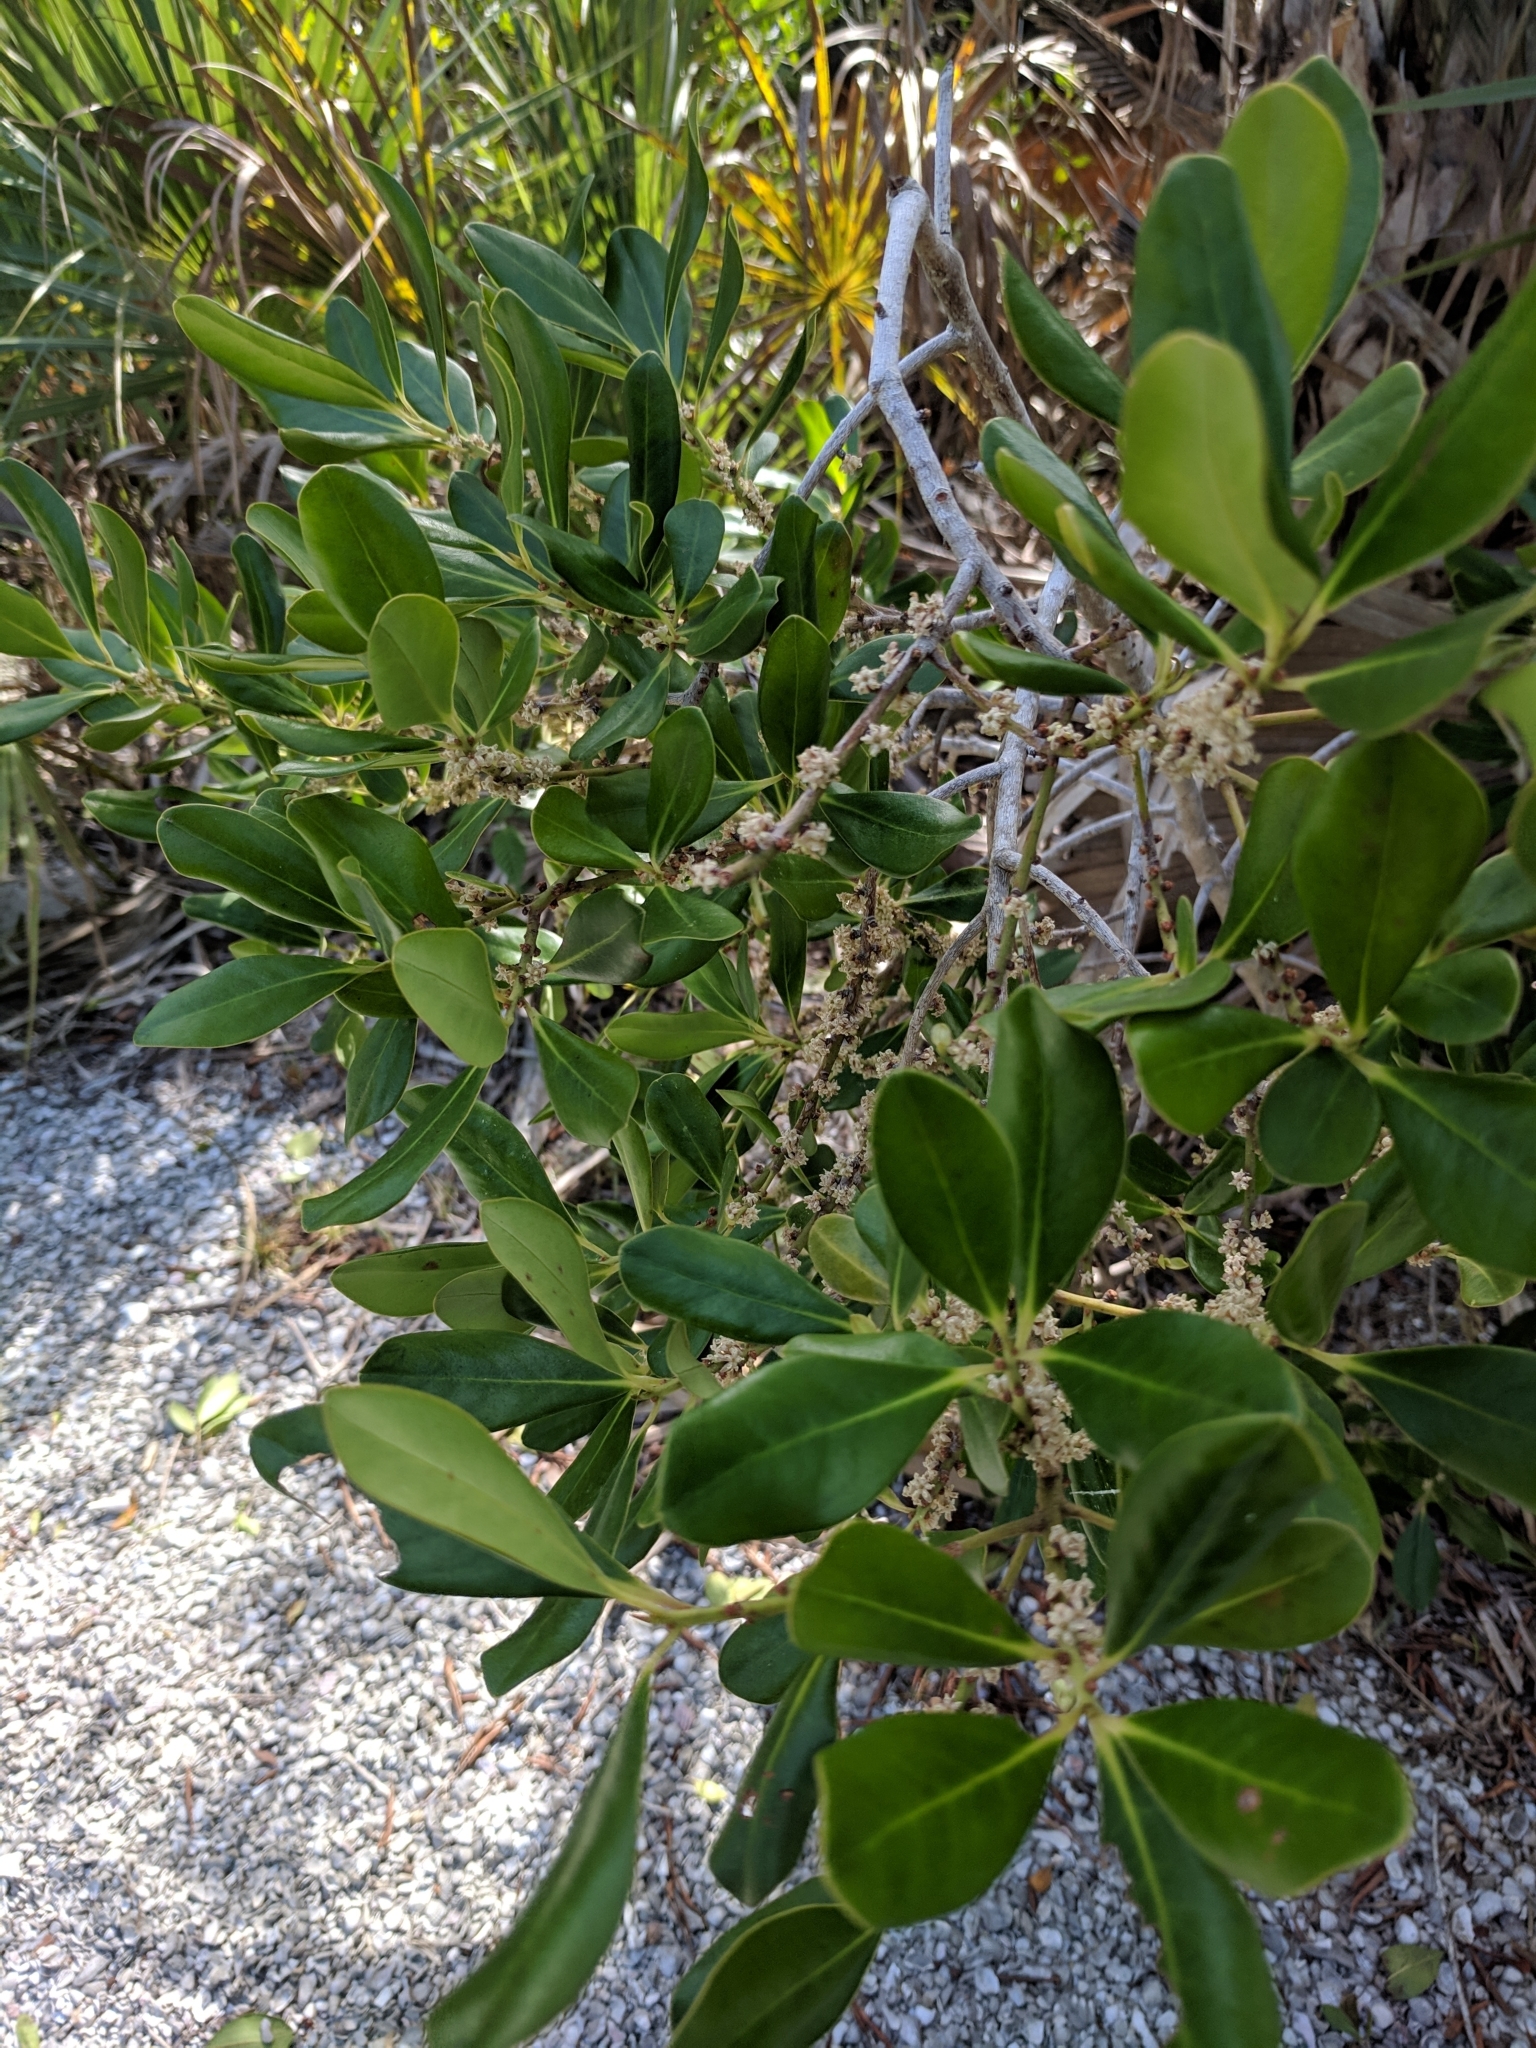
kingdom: Plantae
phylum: Tracheophyta
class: Magnoliopsida
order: Ericales
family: Primulaceae
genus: Myrsine
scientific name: Myrsine floridana
